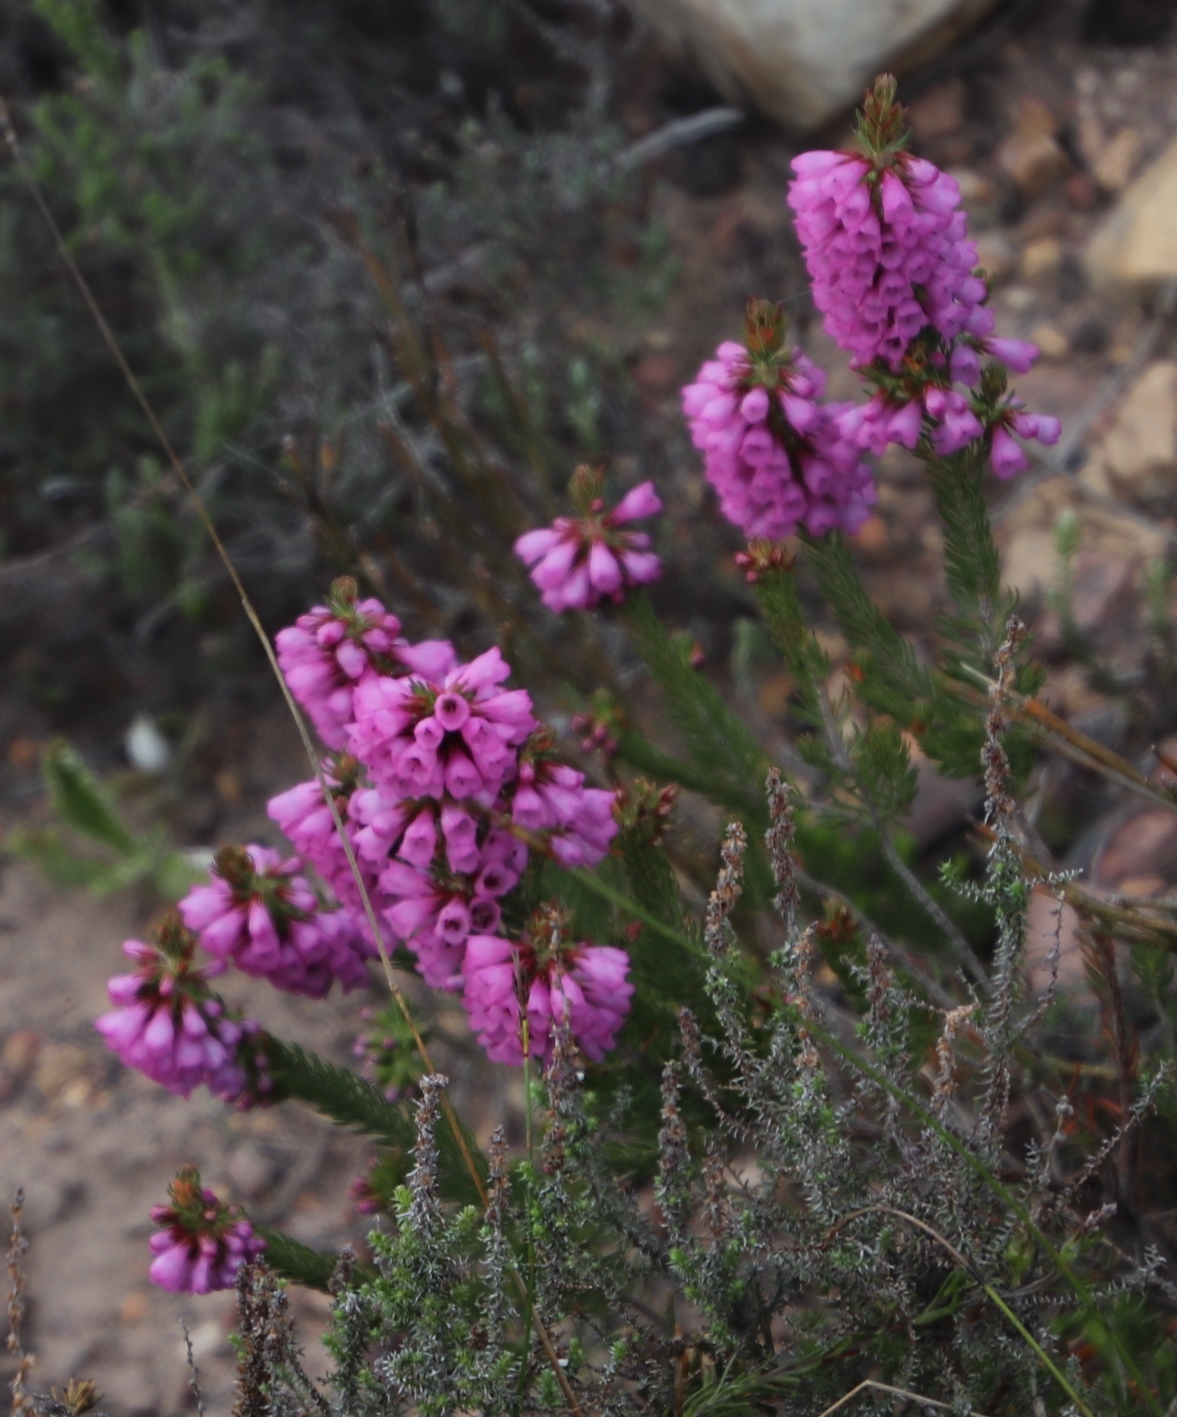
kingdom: Plantae
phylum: Tracheophyta
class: Magnoliopsida
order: Ericales
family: Ericaceae
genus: Erica
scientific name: Erica abietina
